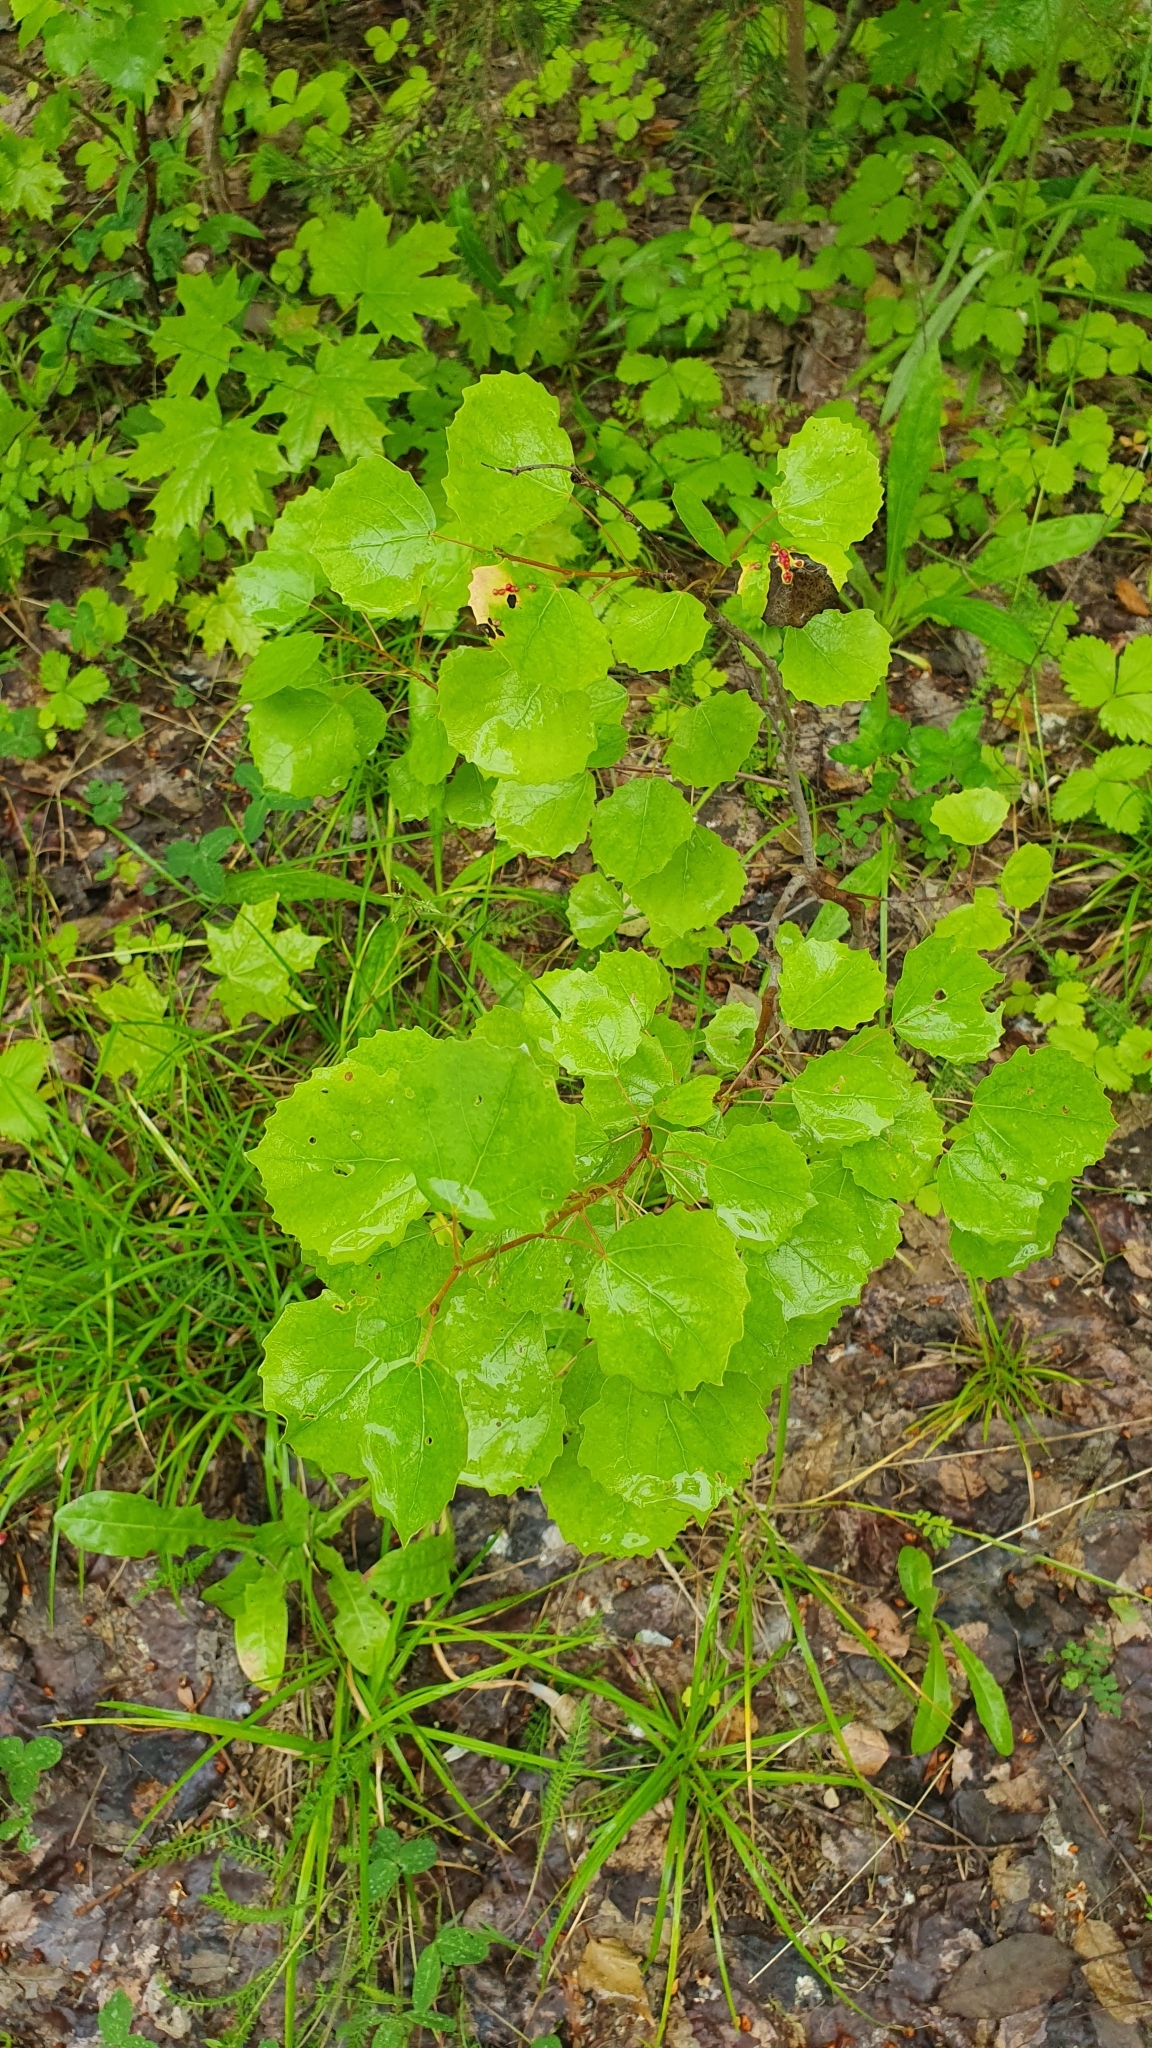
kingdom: Plantae
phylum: Tracheophyta
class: Magnoliopsida
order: Malpighiales
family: Salicaceae
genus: Populus
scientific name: Populus tremula
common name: European aspen
